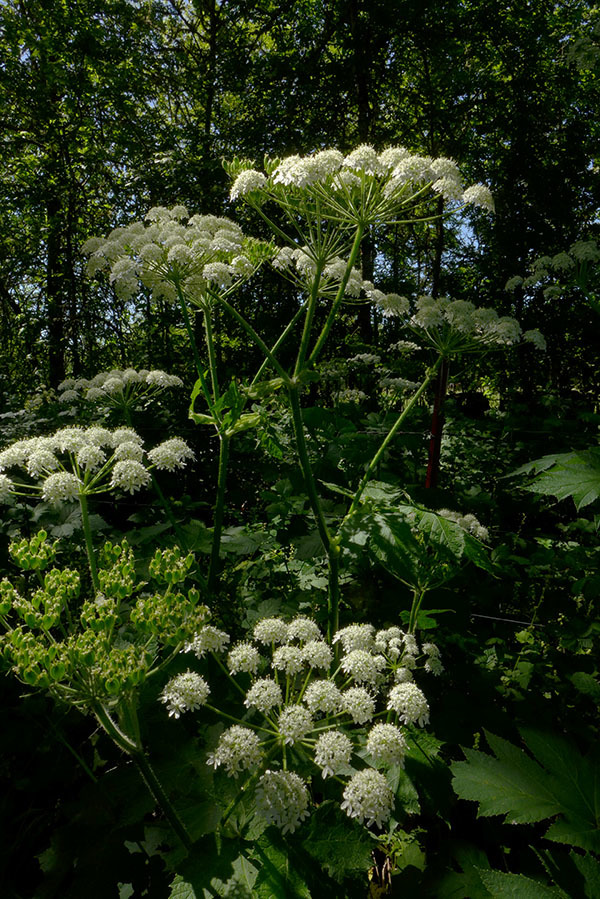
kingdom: Plantae
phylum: Tracheophyta
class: Magnoliopsida
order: Apiales
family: Apiaceae
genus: Heracleum
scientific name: Heracleum maximum
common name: American cow parsnip
